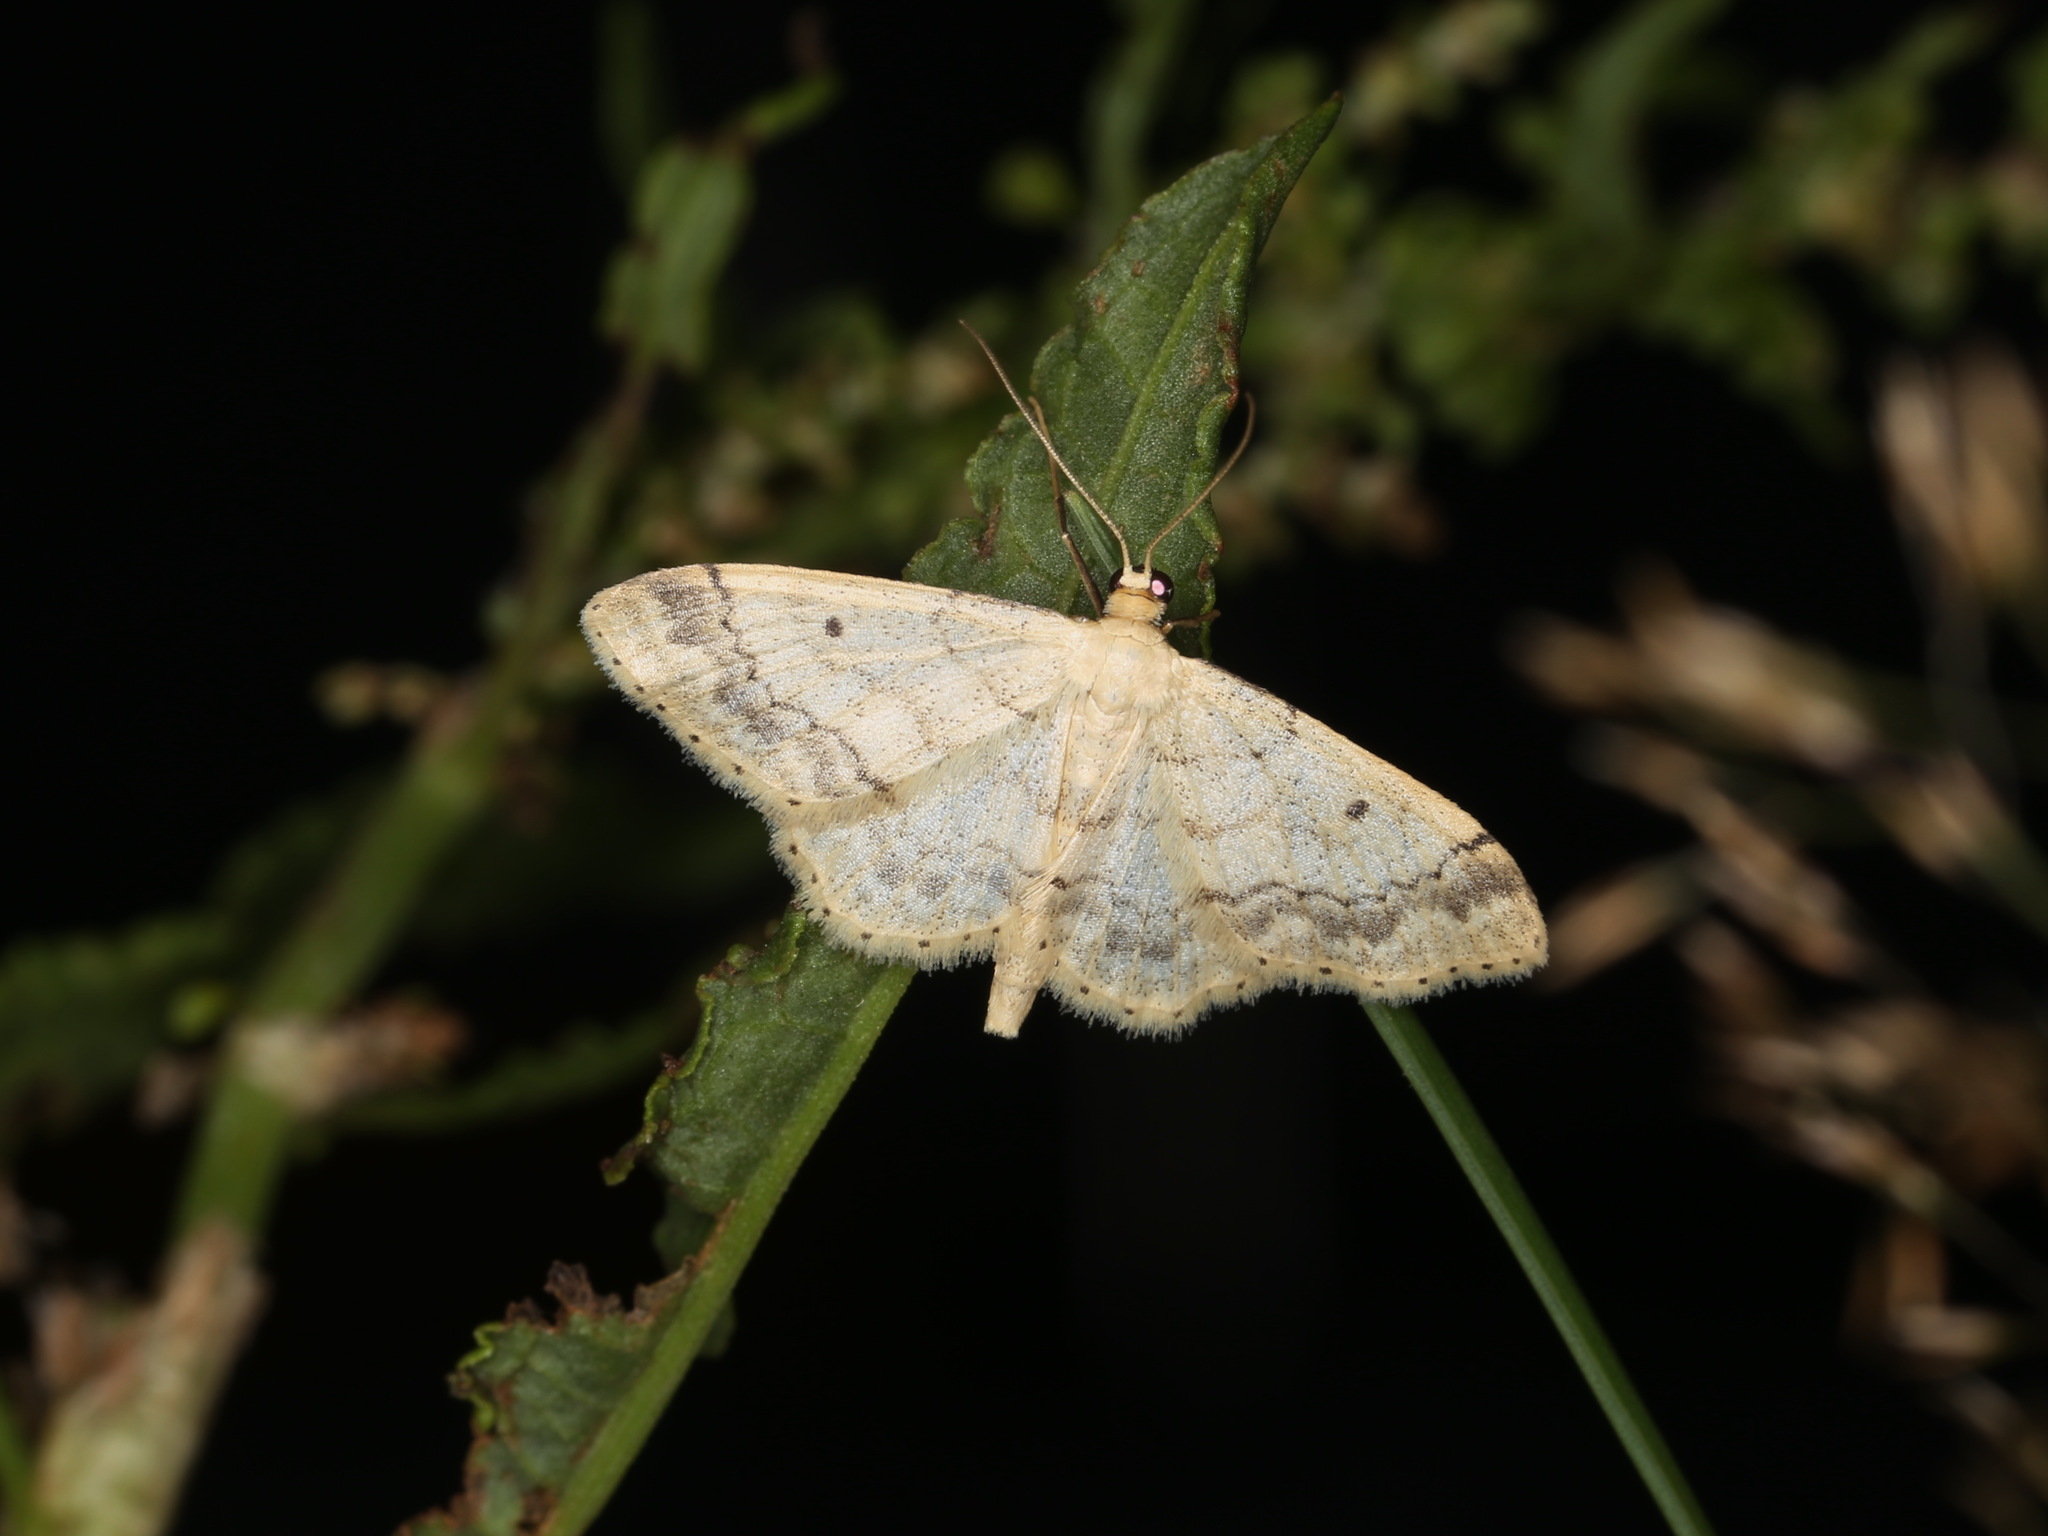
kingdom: Animalia
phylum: Arthropoda
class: Insecta
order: Lepidoptera
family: Geometridae
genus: Idaea
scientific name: Idaea biselata
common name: Small fan-footed wave
